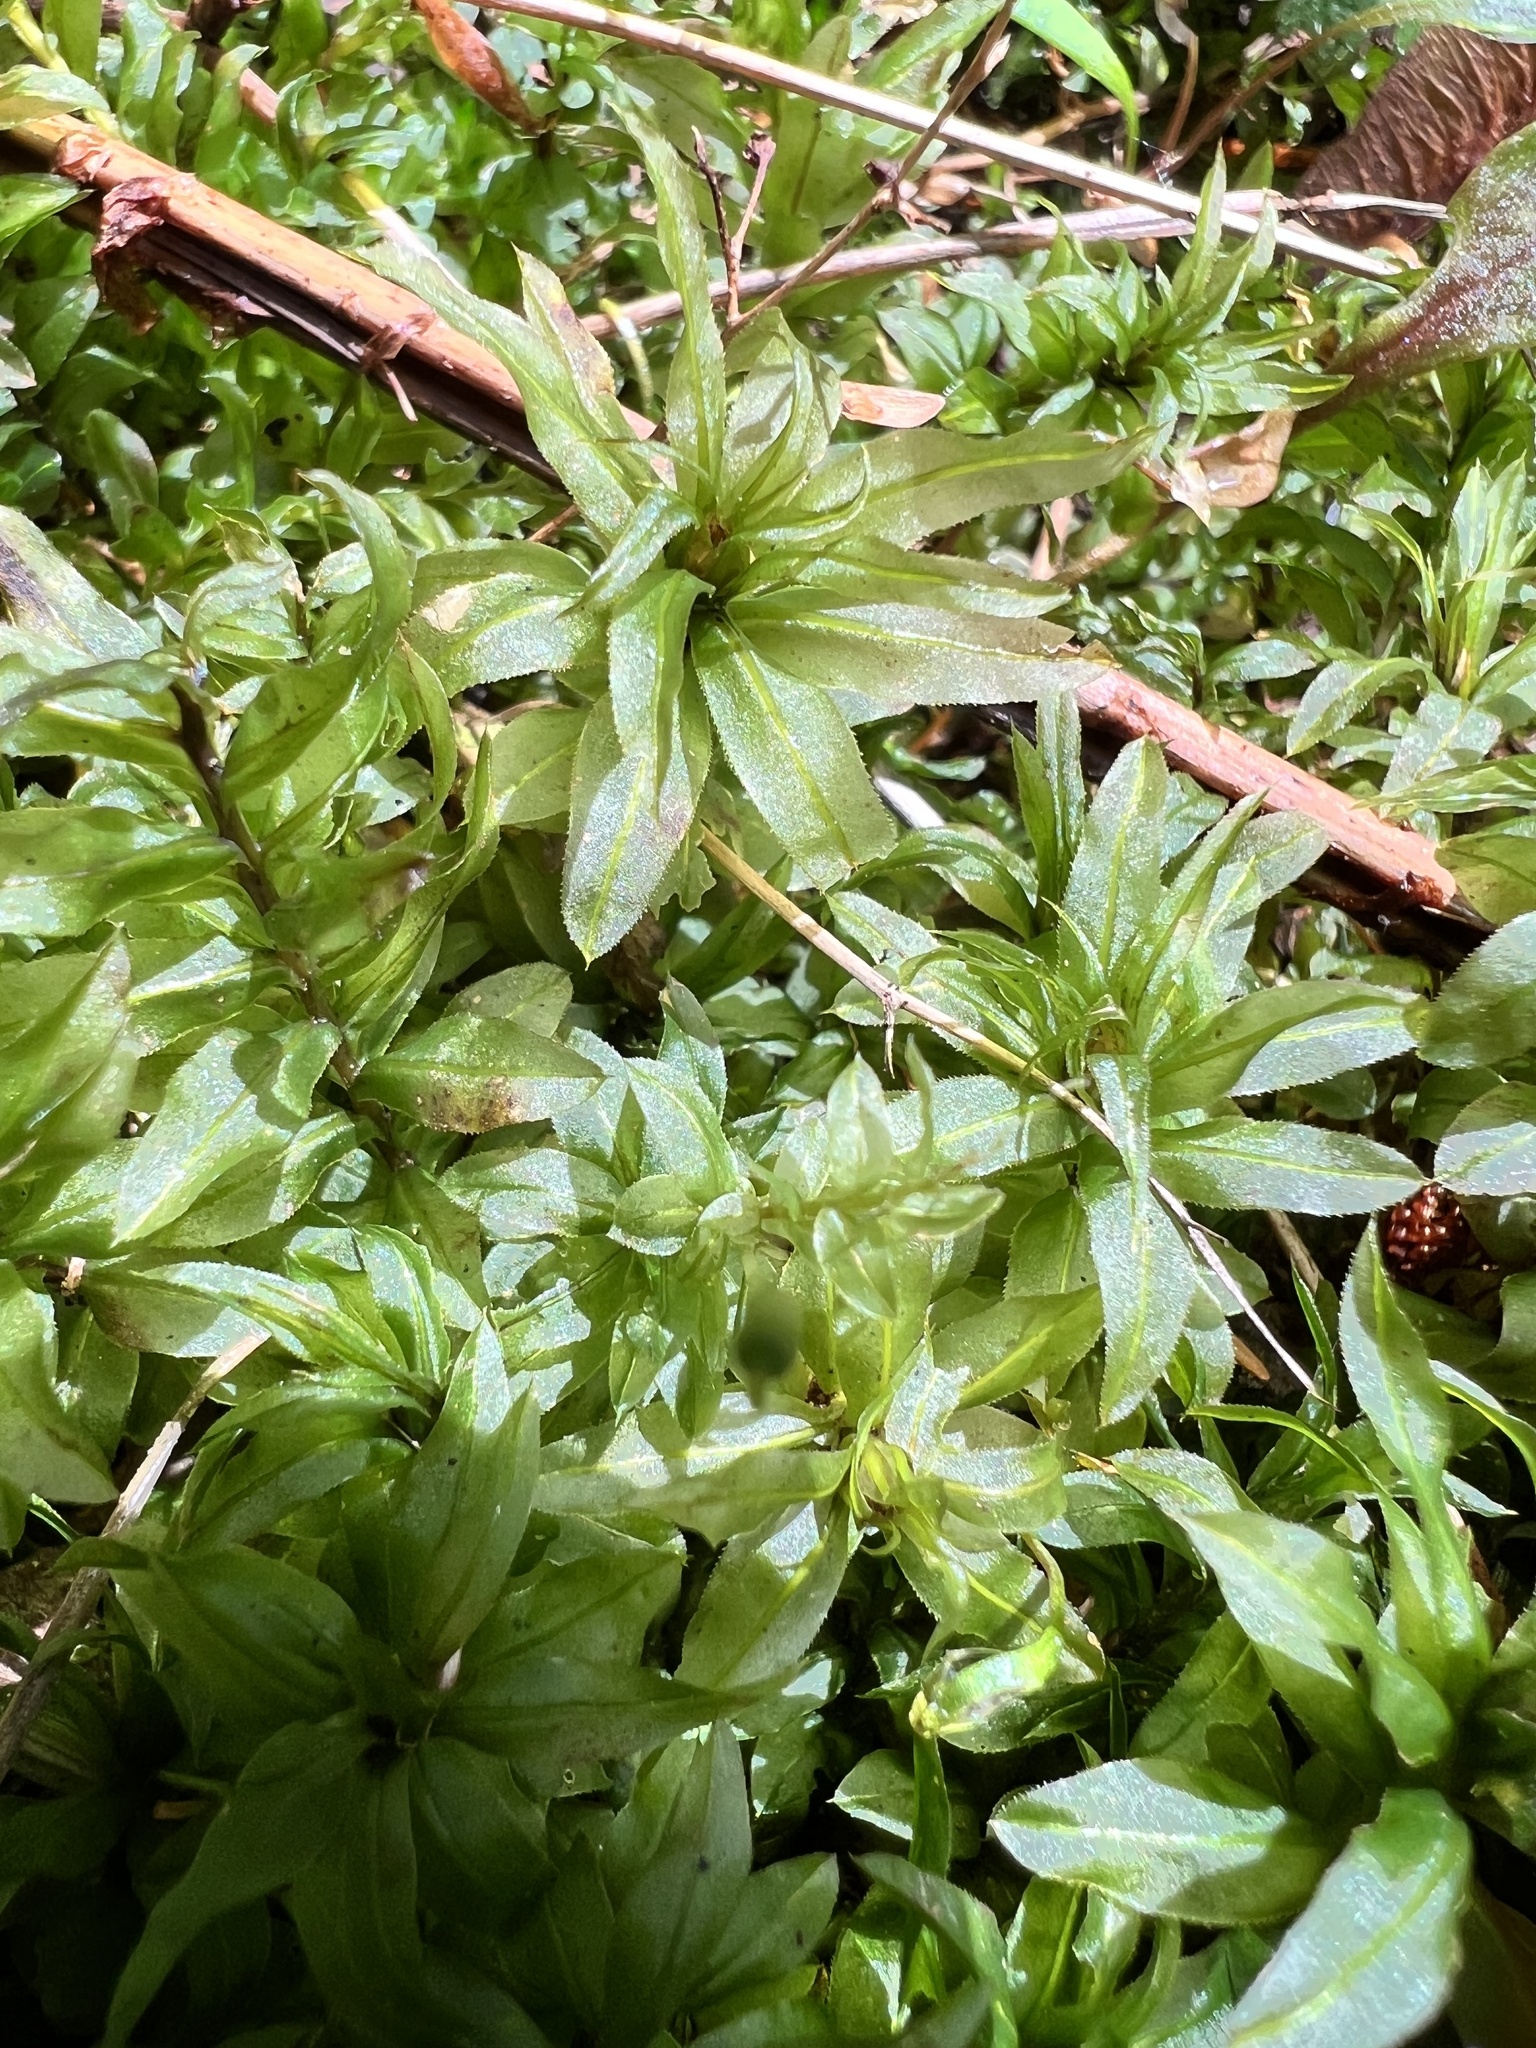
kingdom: Plantae
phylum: Bryophyta
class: Bryopsida
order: Bryales
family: Mniaceae
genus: Plagiomnium
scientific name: Plagiomnium insigne
